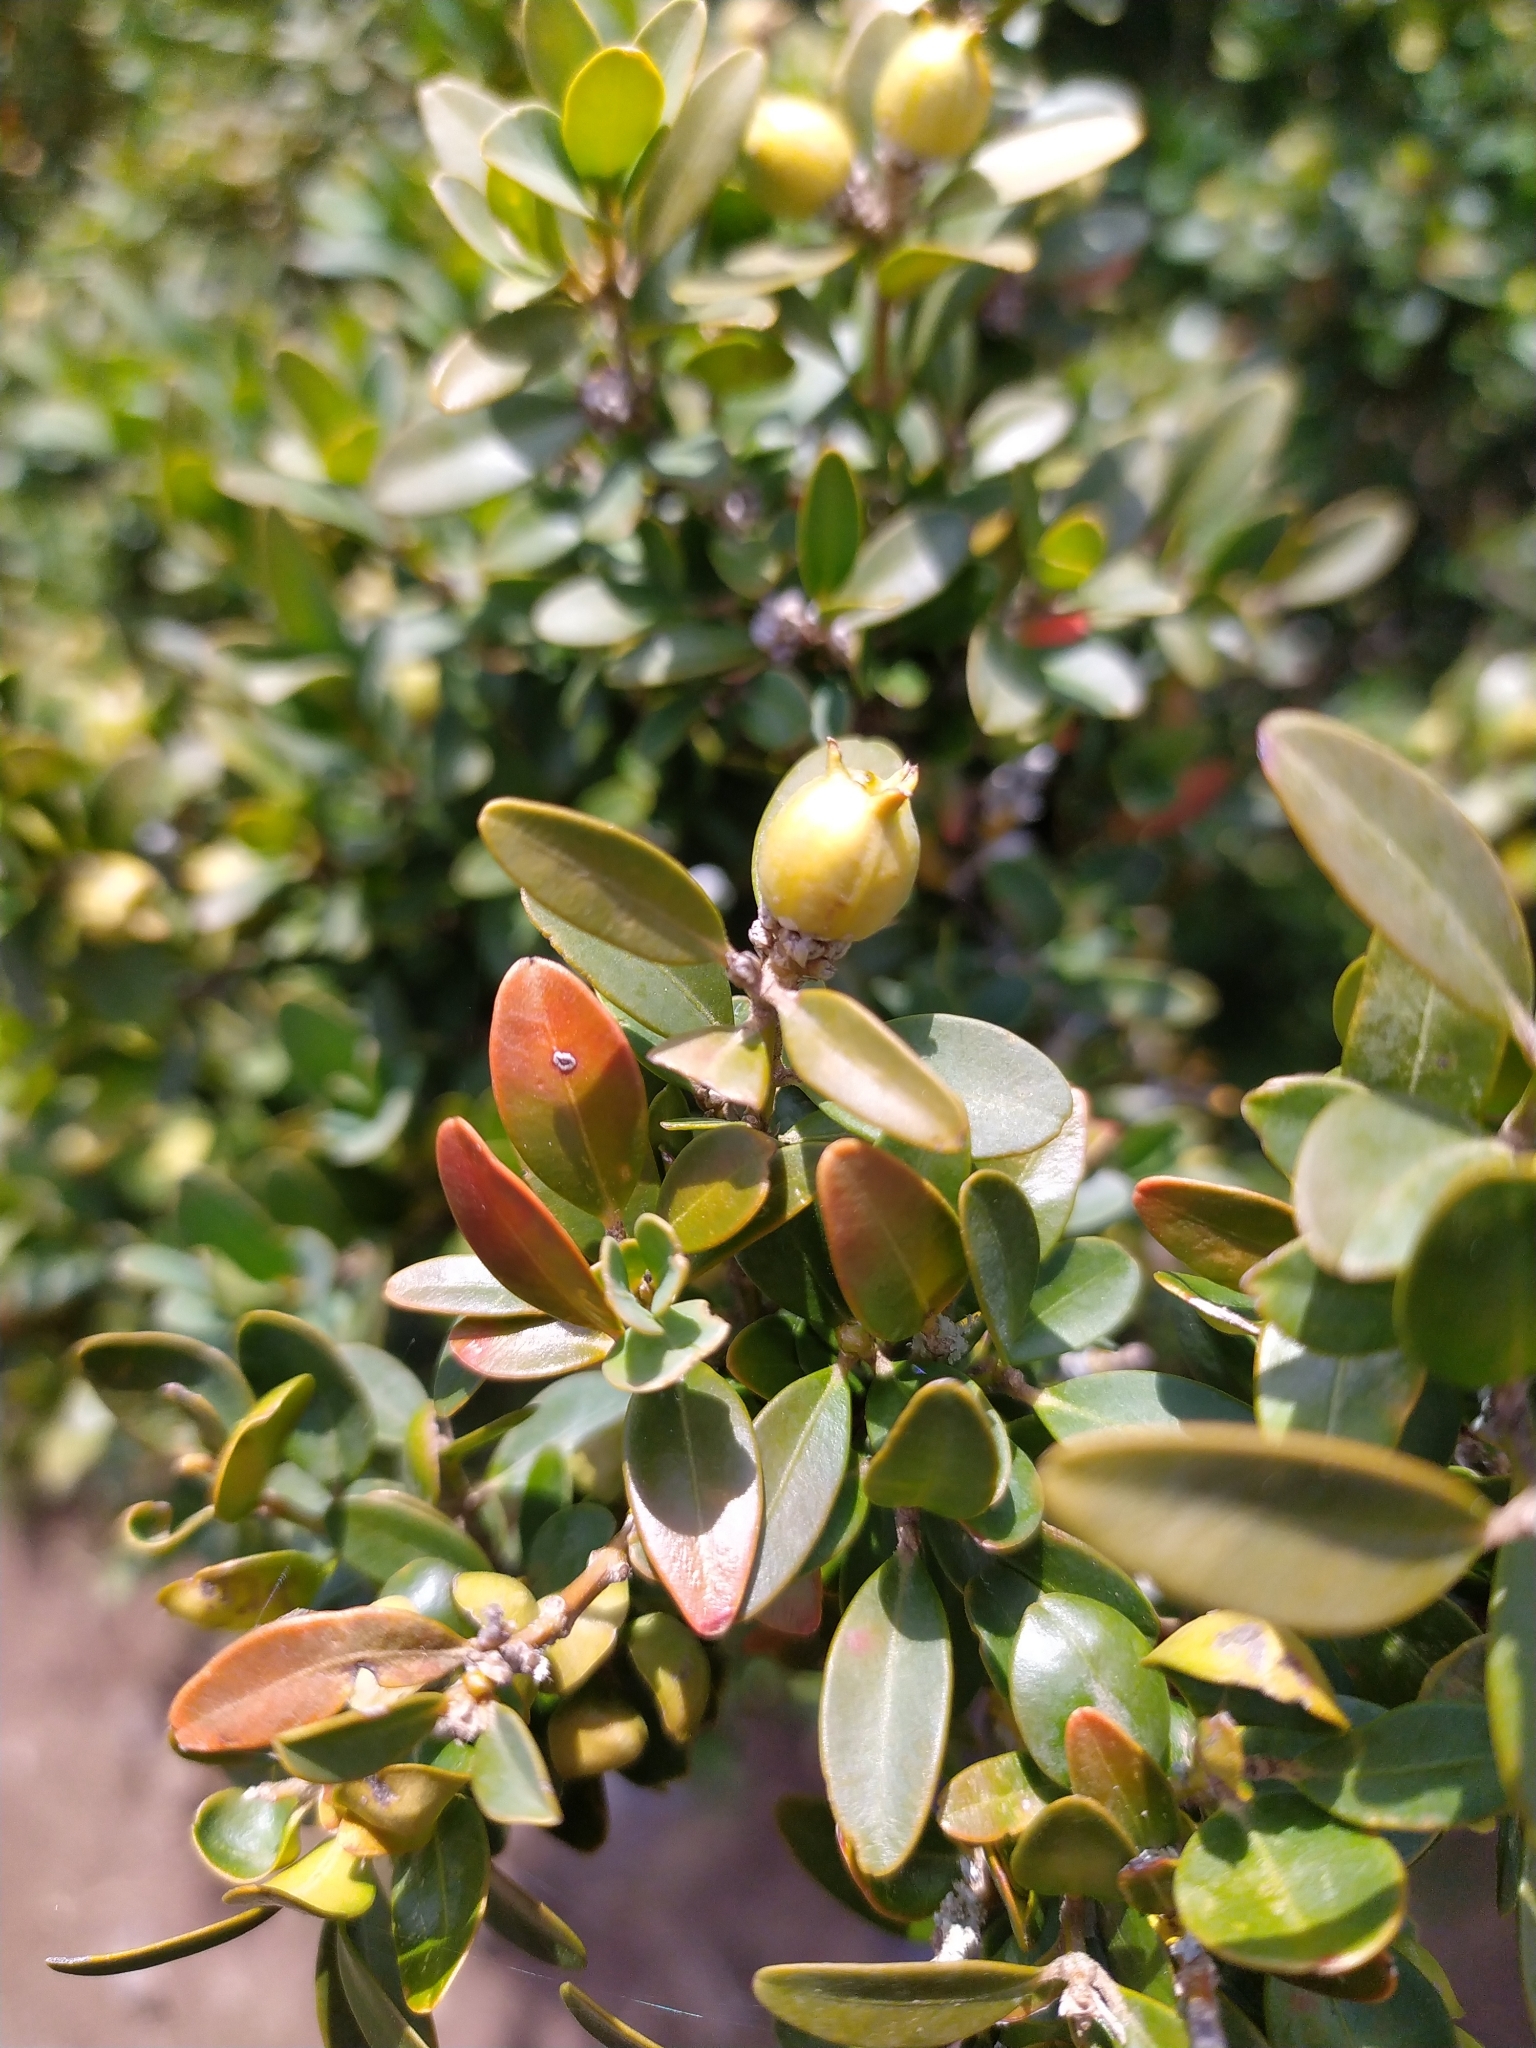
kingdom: Plantae
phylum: Tracheophyta
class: Magnoliopsida
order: Buxales
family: Buxaceae
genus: Buxus
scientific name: Buxus sempervirens
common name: Box
